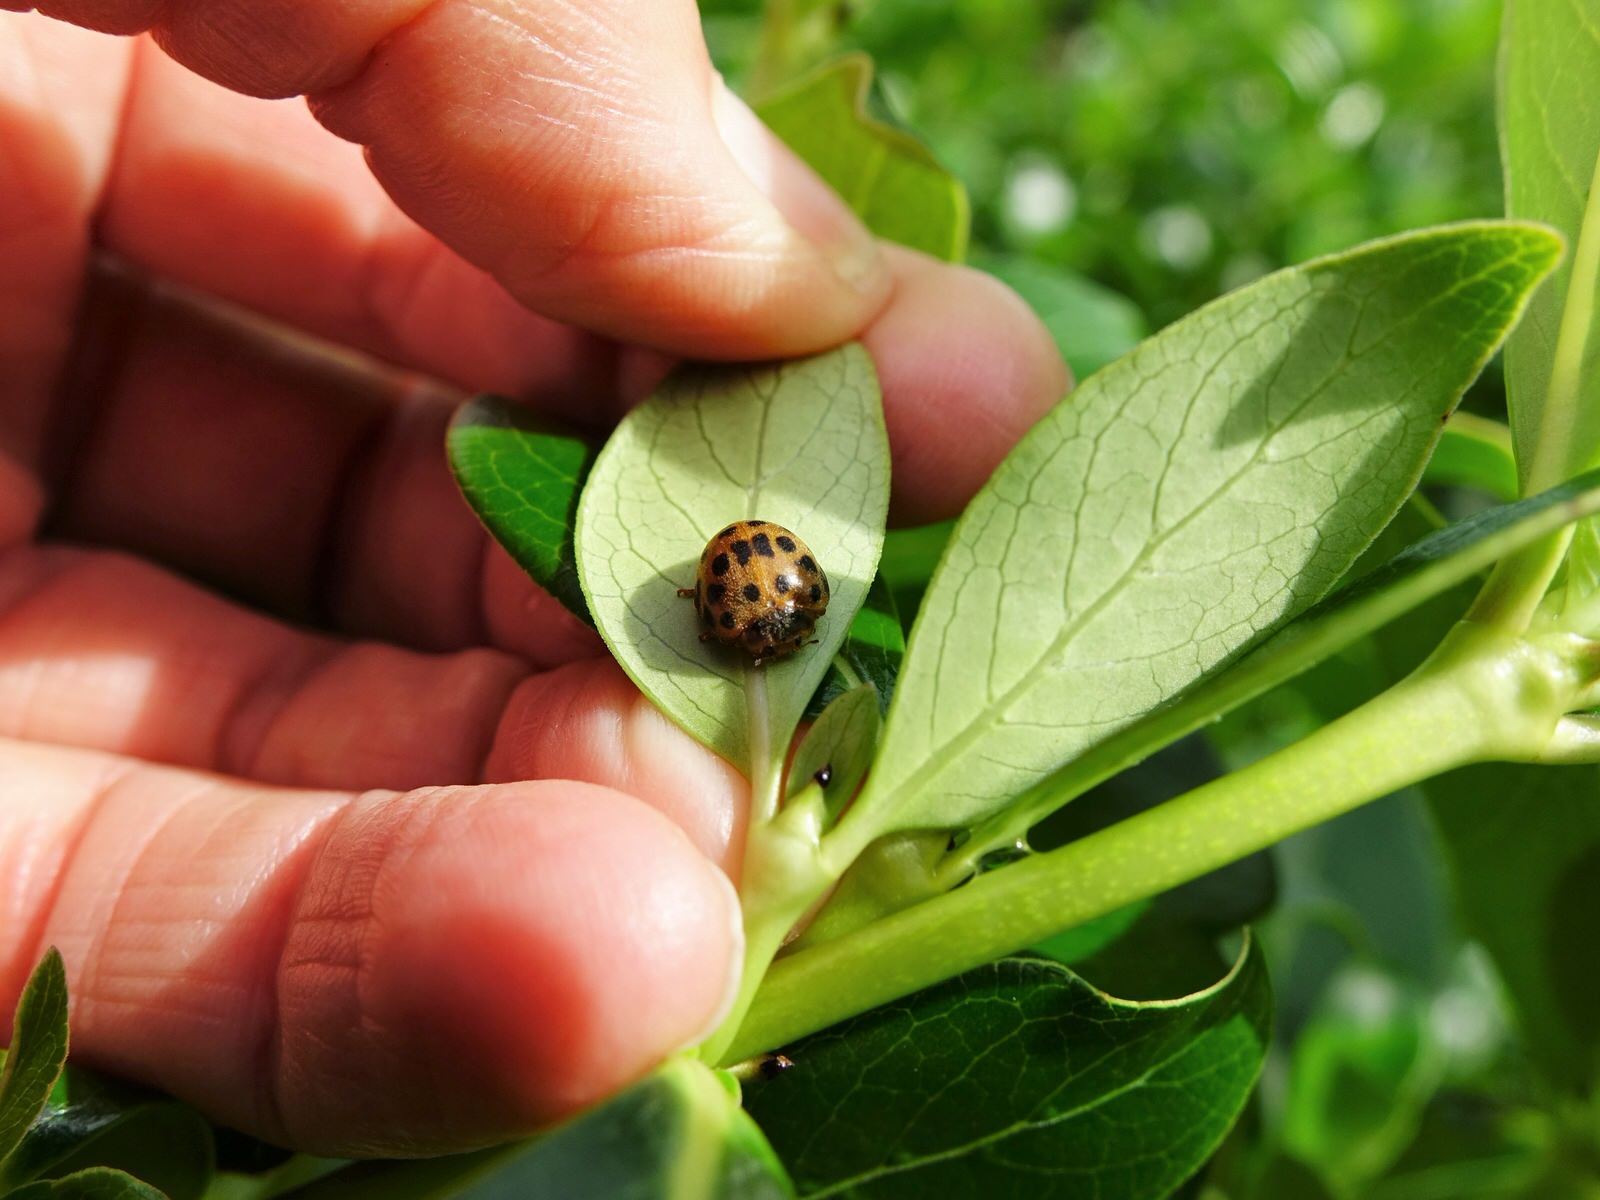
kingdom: Animalia
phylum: Arthropoda
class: Insecta
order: Coleoptera
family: Coccinellidae
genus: Henosepilachna
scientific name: Henosepilachna vigintioctopunctata
